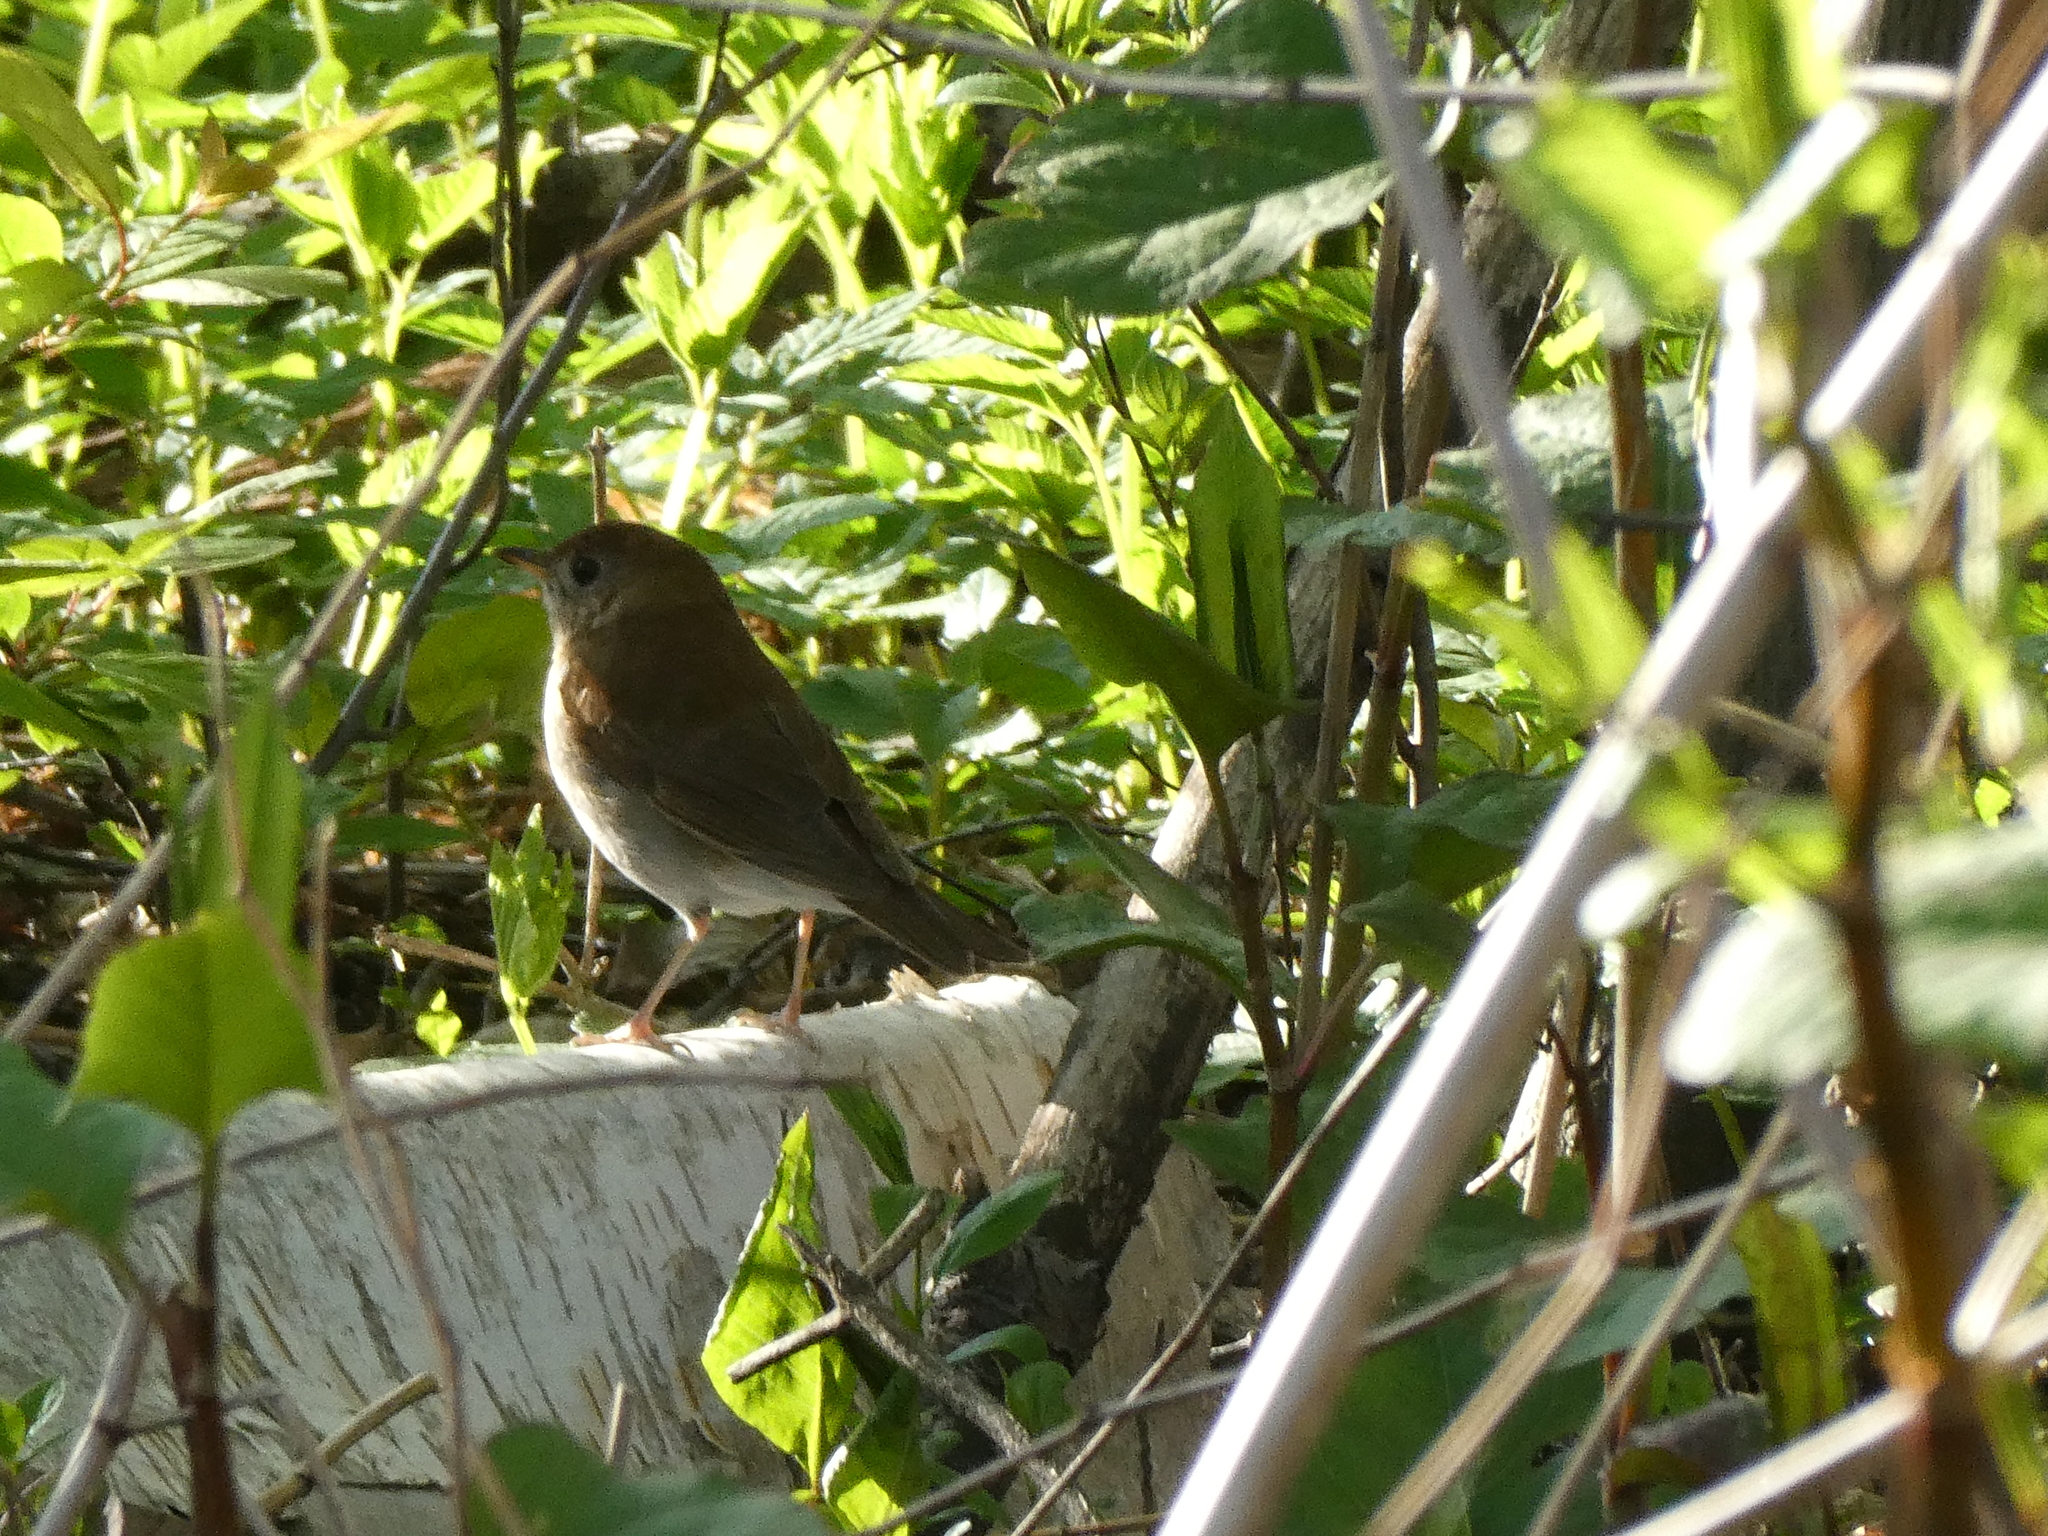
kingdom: Animalia
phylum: Chordata
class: Aves
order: Passeriformes
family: Turdidae
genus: Catharus
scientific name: Catharus fuscescens
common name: Veery
